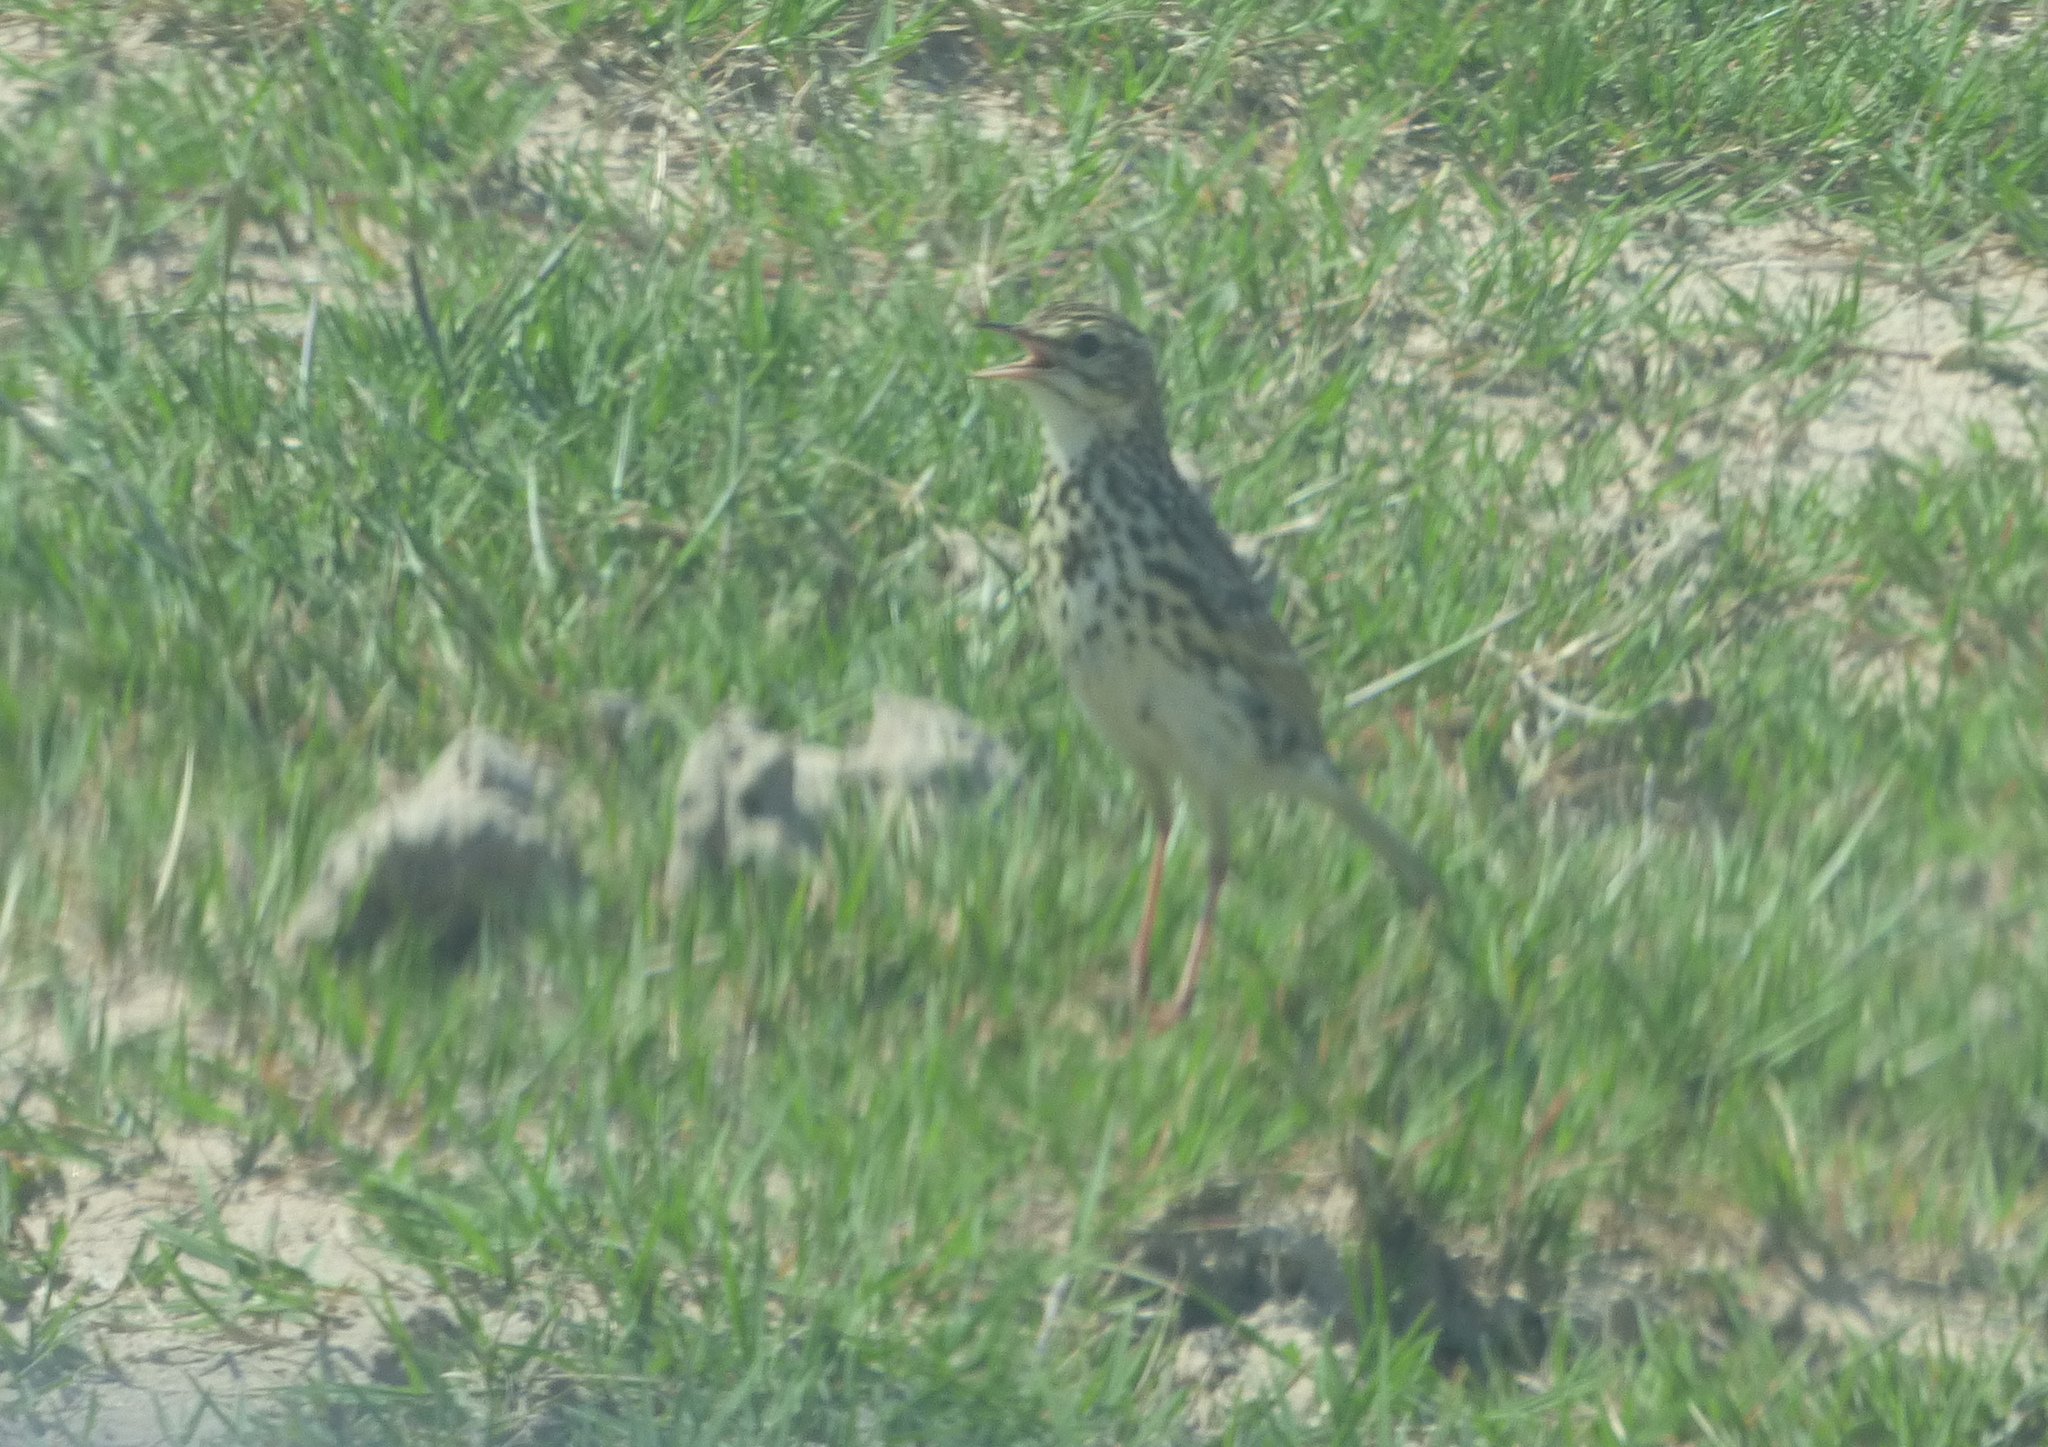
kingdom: Animalia
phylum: Chordata
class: Aves
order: Passeriformes
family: Motacillidae
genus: Anthus
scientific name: Anthus correndera
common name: Correndera pipit
